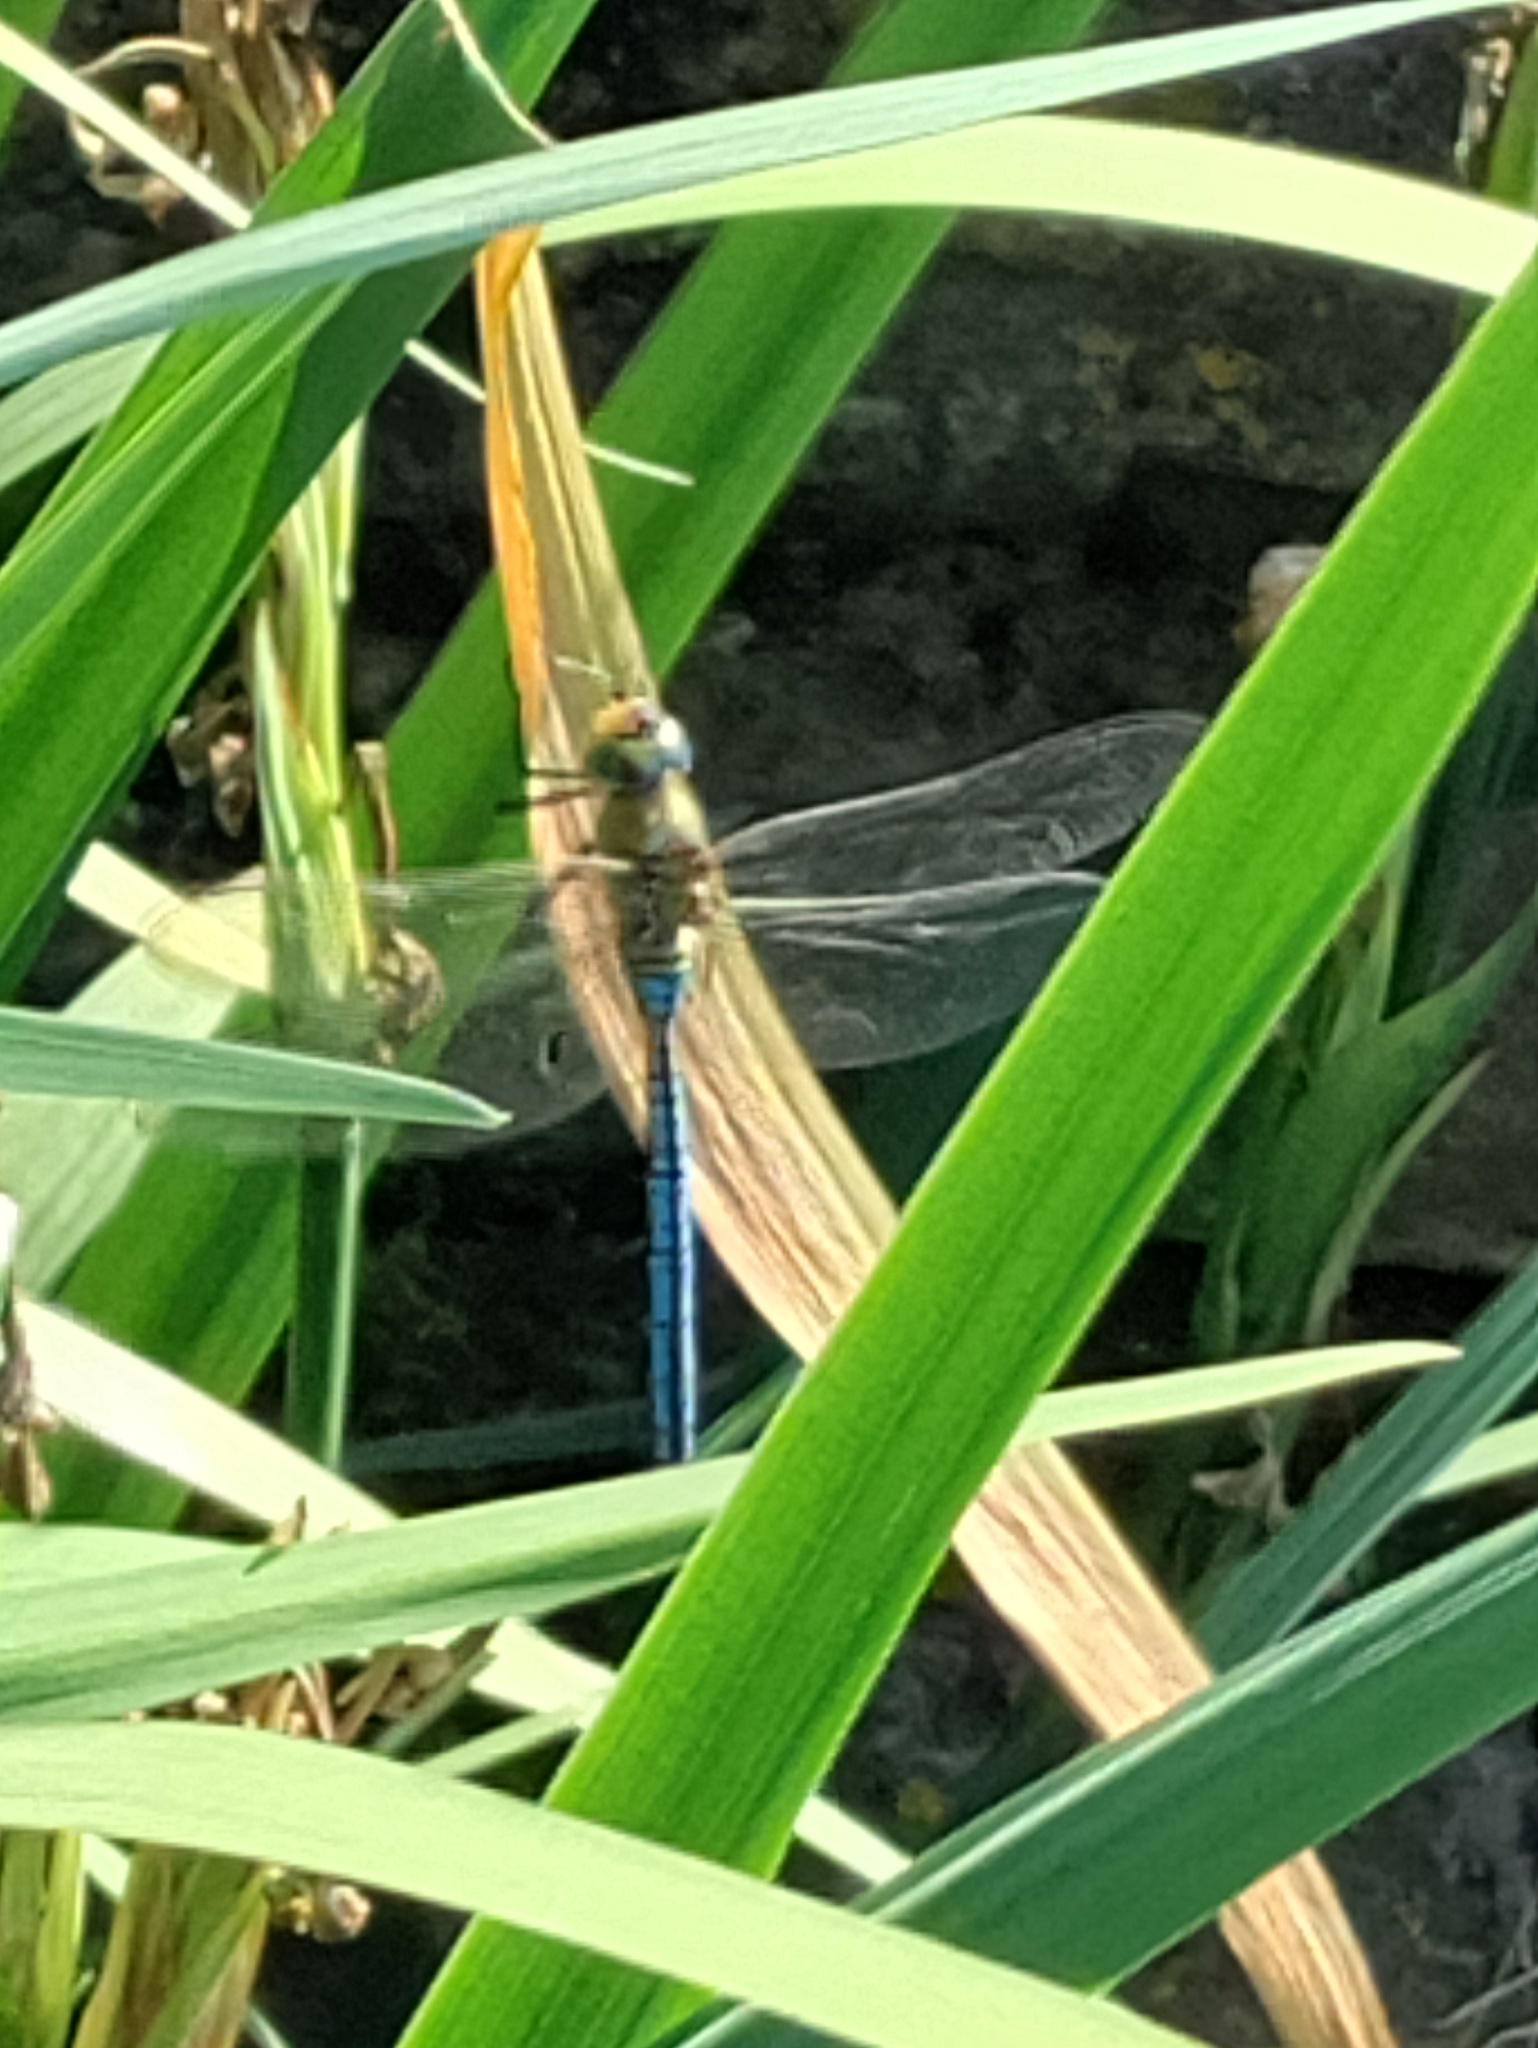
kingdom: Animalia
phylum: Arthropoda
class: Insecta
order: Odonata
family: Aeshnidae
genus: Anax
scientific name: Anax imperator
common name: Emperor dragonfly
